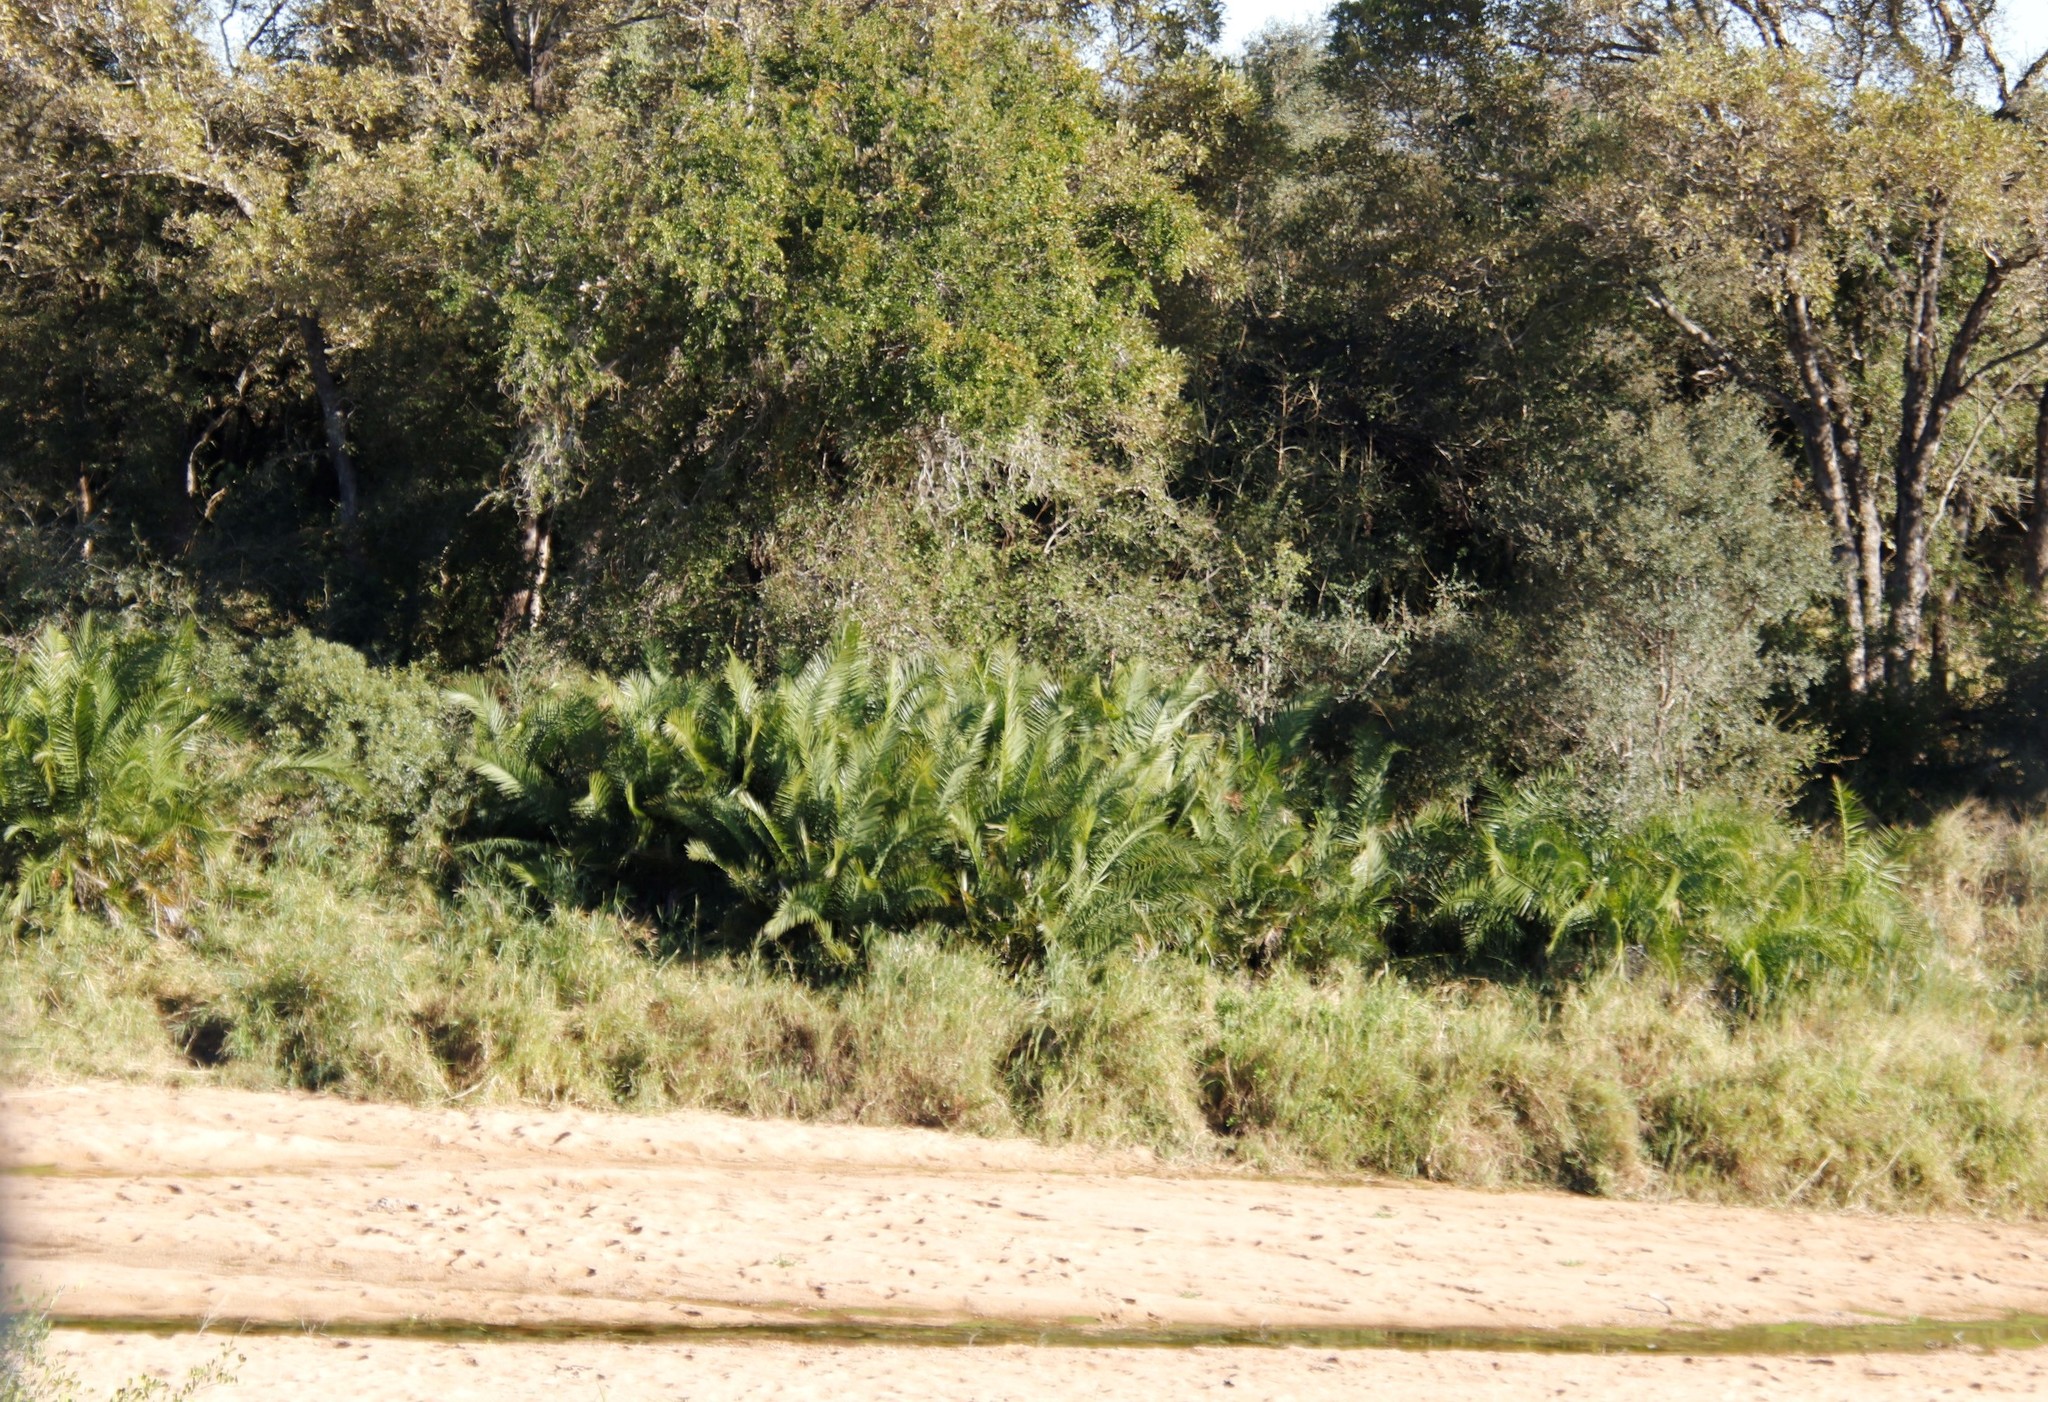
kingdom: Plantae
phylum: Tracheophyta
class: Liliopsida
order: Arecales
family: Arecaceae
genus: Phoenix
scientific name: Phoenix reclinata
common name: Senegal date palm
